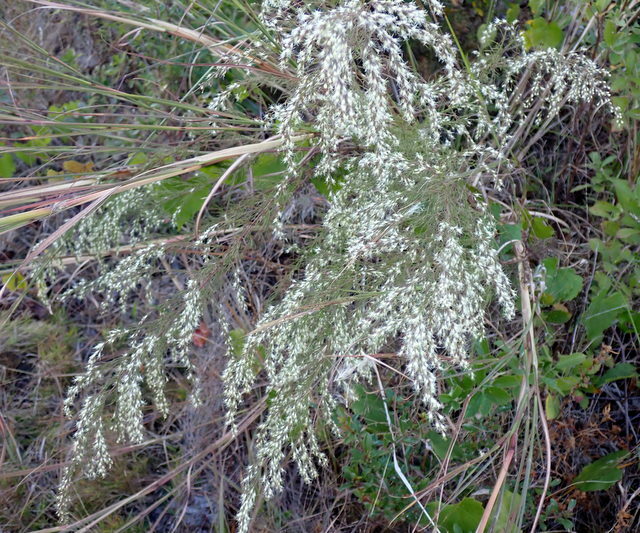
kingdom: Plantae
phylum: Tracheophyta
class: Magnoliopsida
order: Asterales
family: Asteraceae
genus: Eupatorium
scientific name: Eupatorium capillifolium
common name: Dog-fennel
